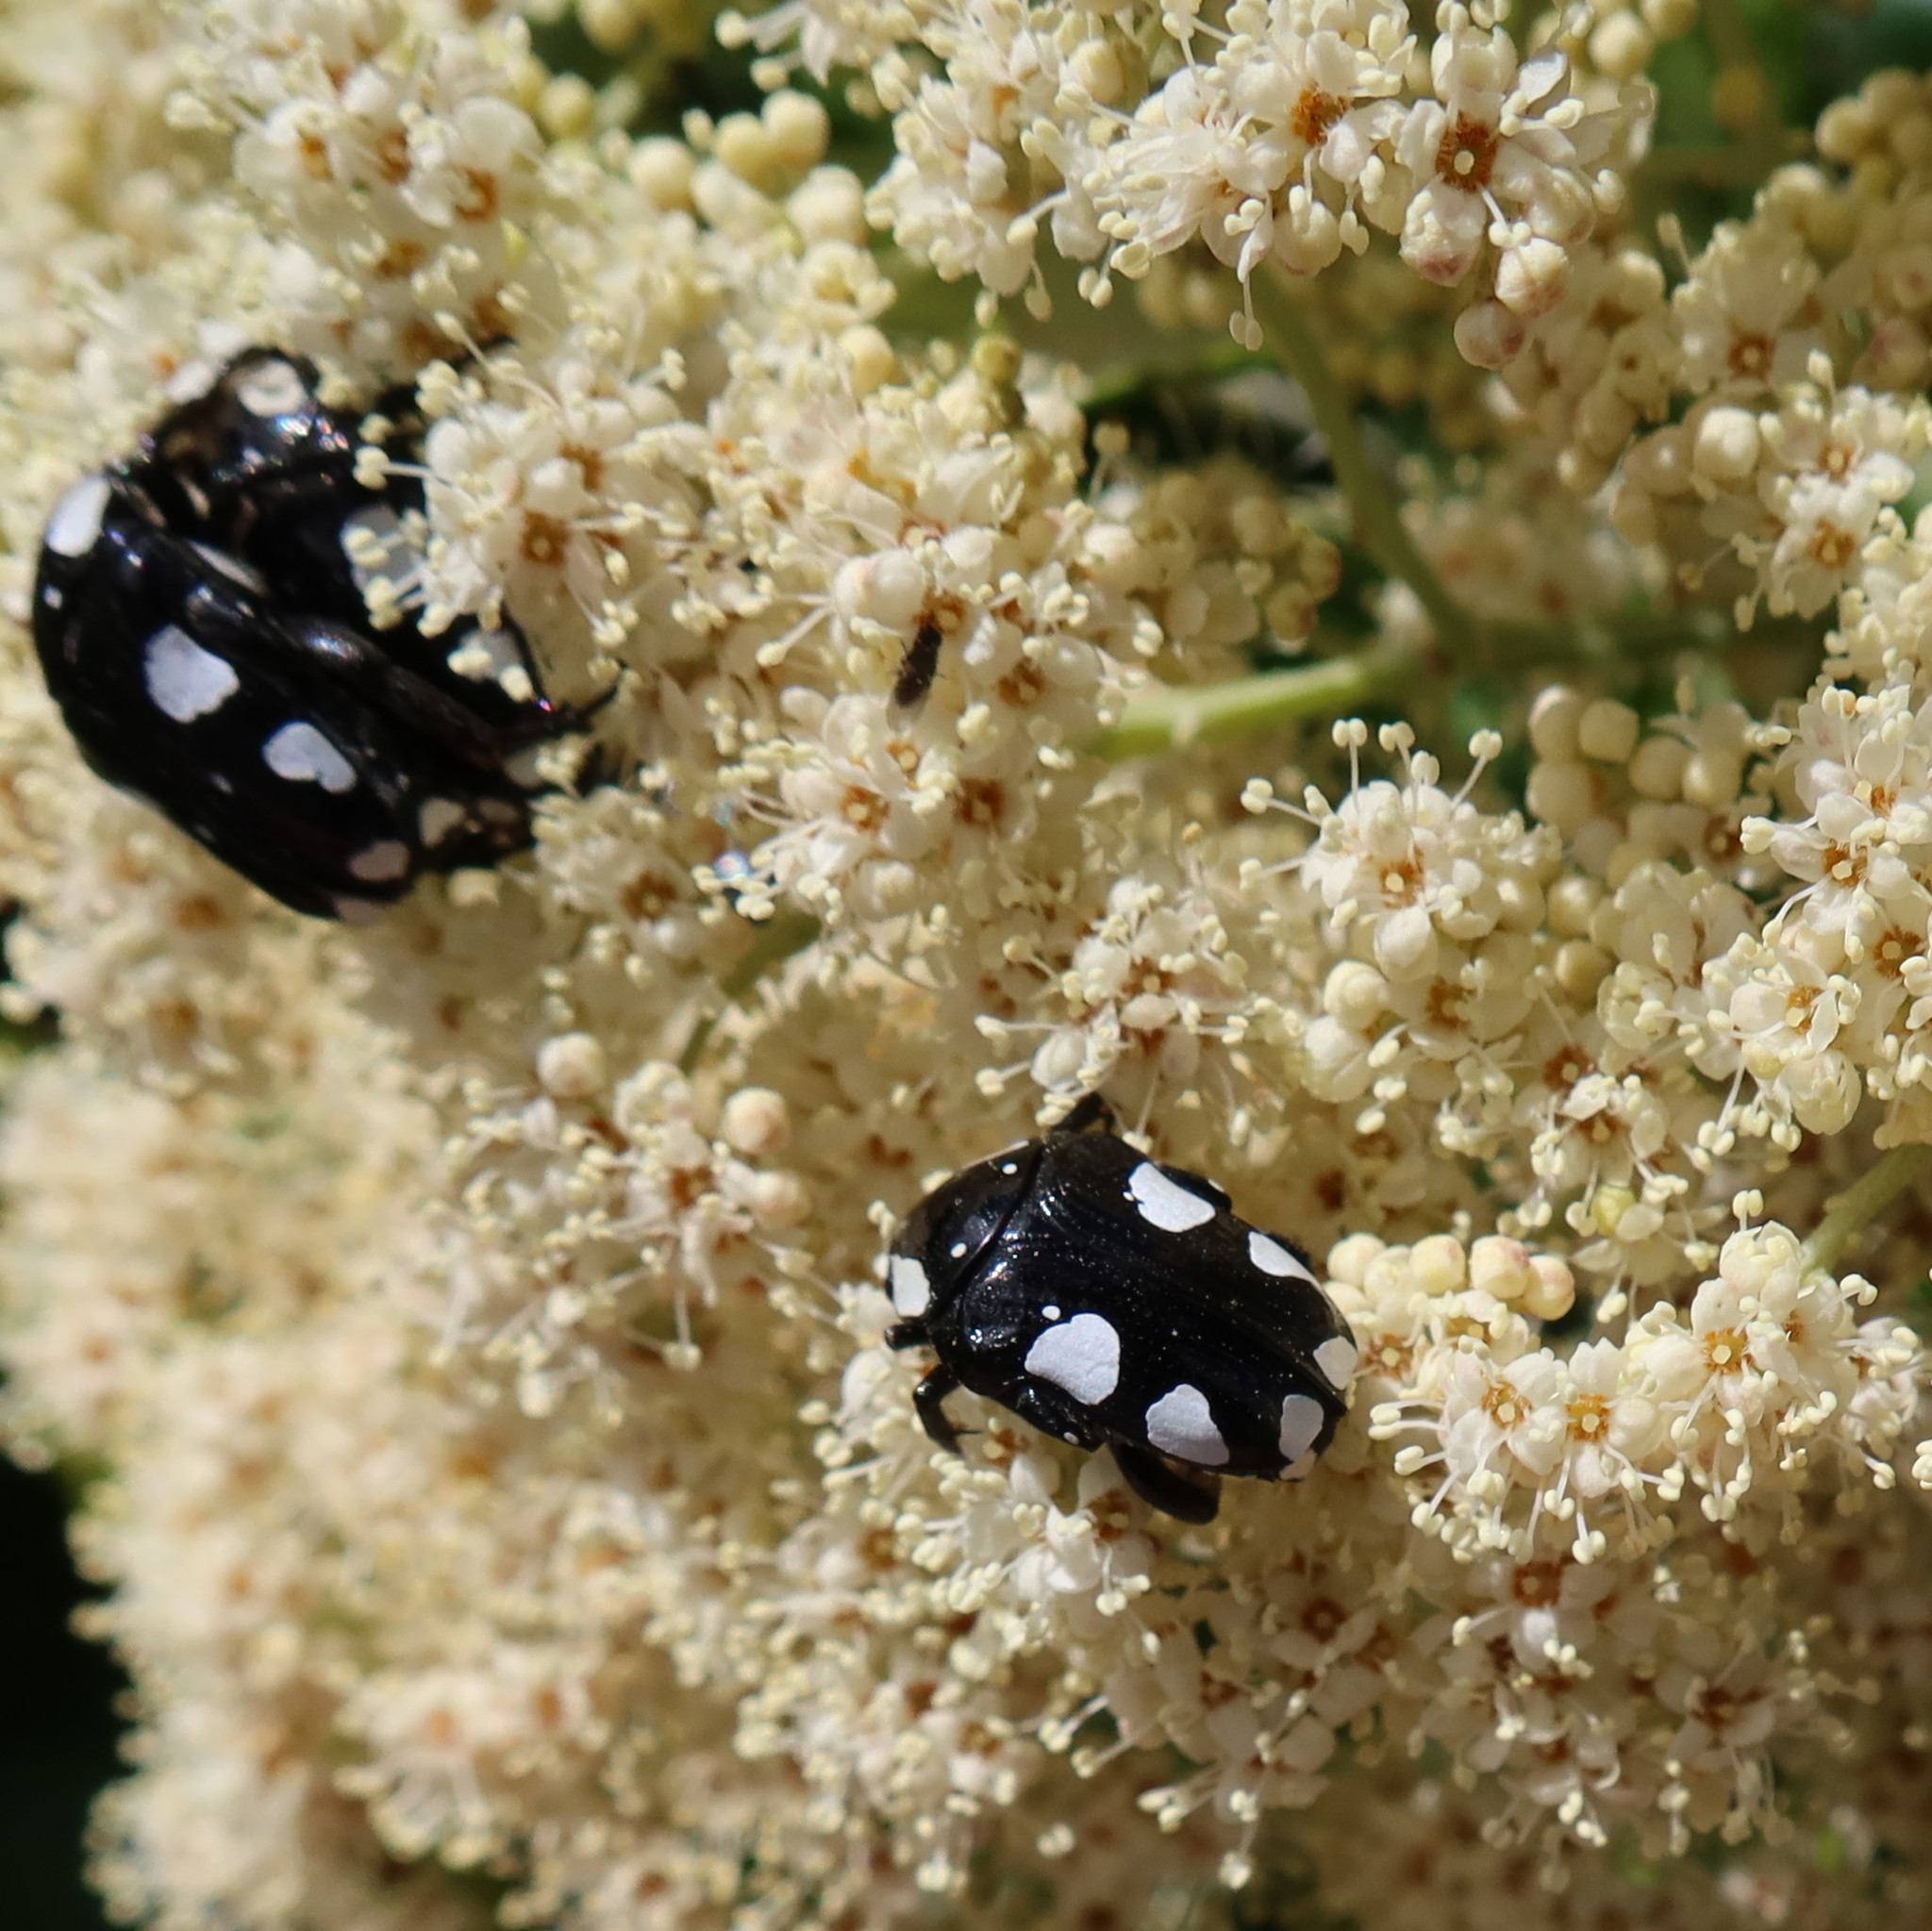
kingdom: Animalia
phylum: Arthropoda
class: Insecta
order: Coleoptera
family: Scarabaeidae
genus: Mausoleopsis
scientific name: Mausoleopsis amabilis
